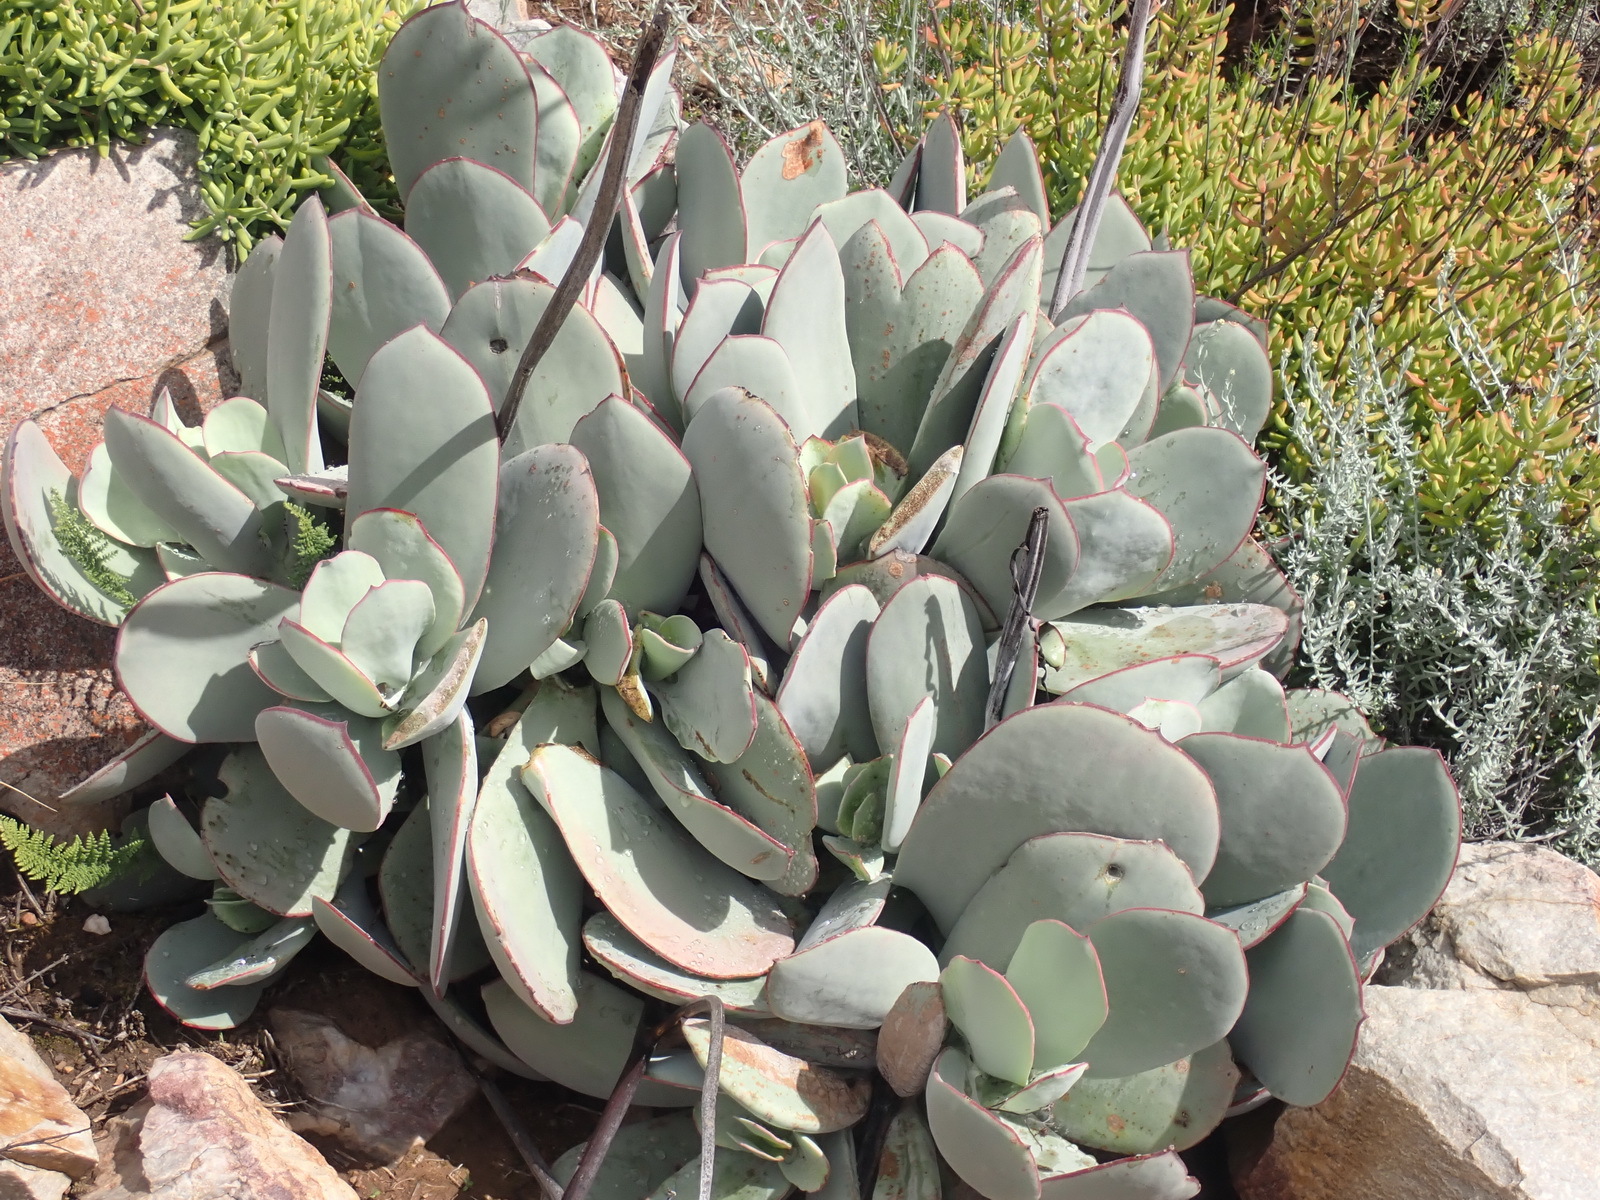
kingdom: Plantae
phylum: Tracheophyta
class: Magnoliopsida
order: Saxifragales
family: Crassulaceae
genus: Cotyledon
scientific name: Cotyledon orbiculata
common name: Pig's ear
